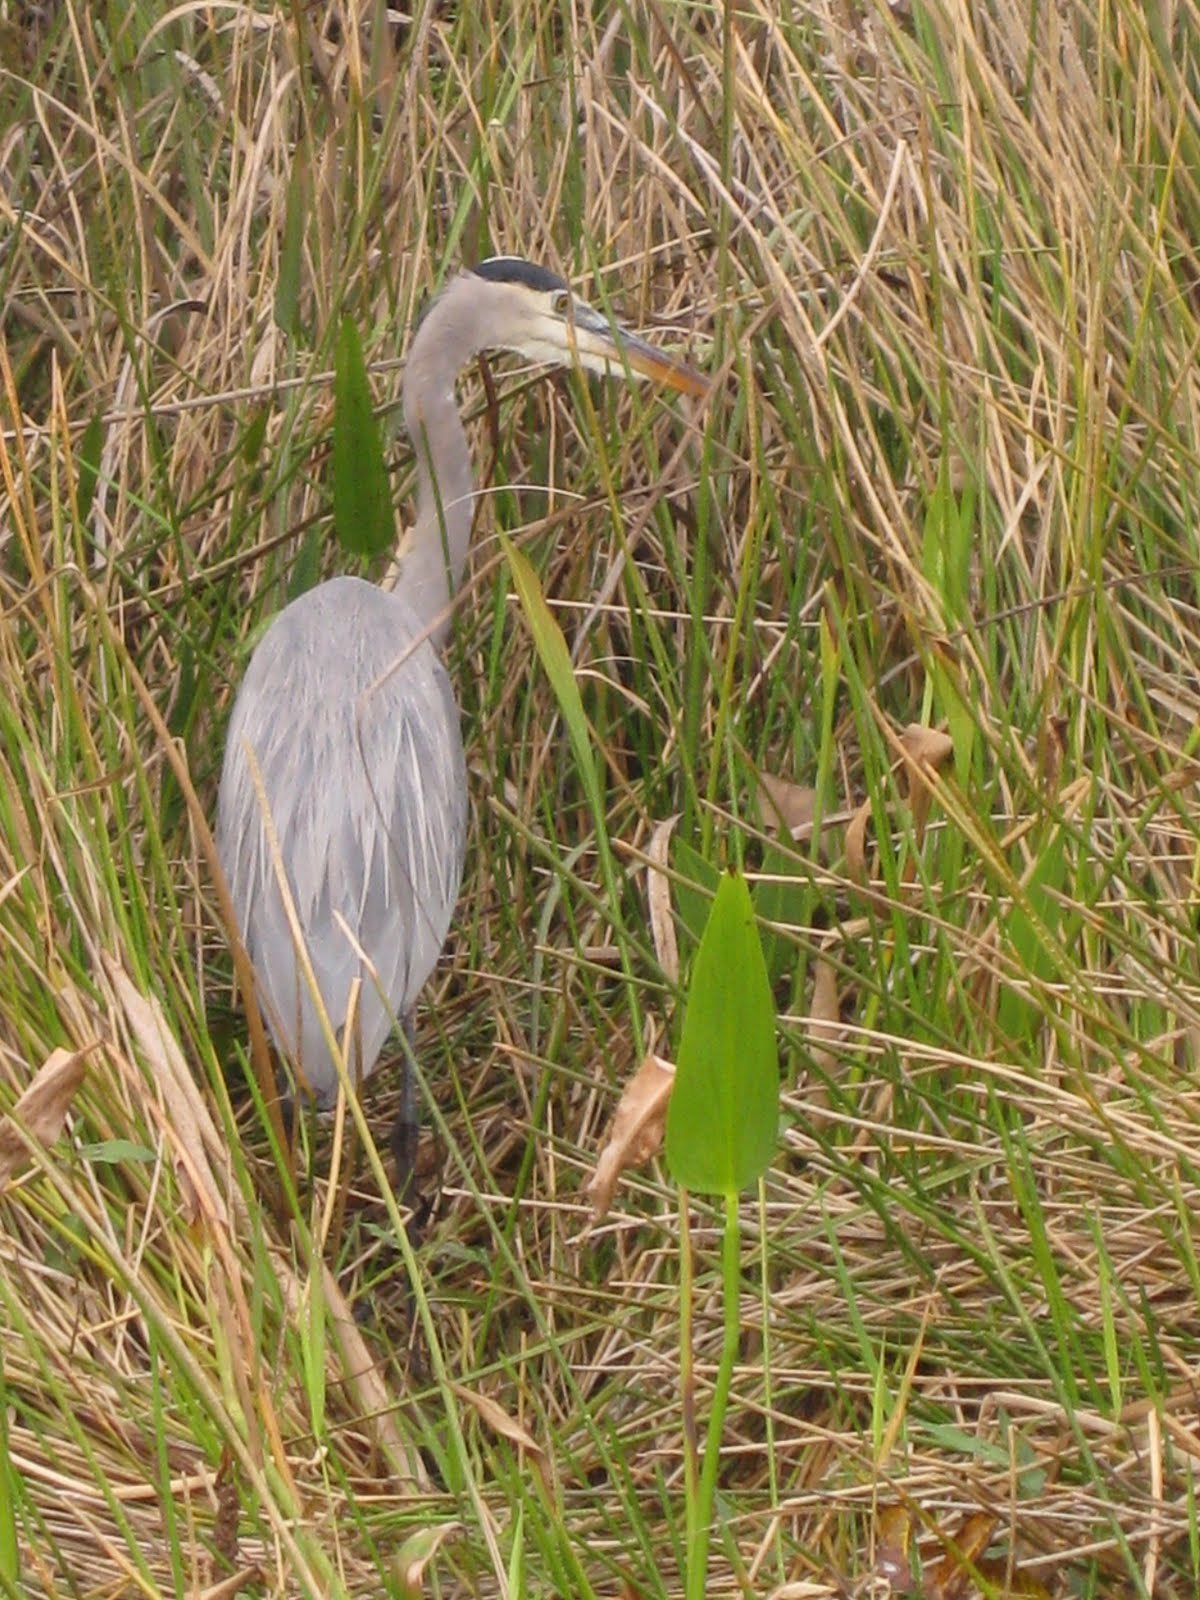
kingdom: Animalia
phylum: Chordata
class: Aves
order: Pelecaniformes
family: Ardeidae
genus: Ardea
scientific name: Ardea herodias
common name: Great blue heron
